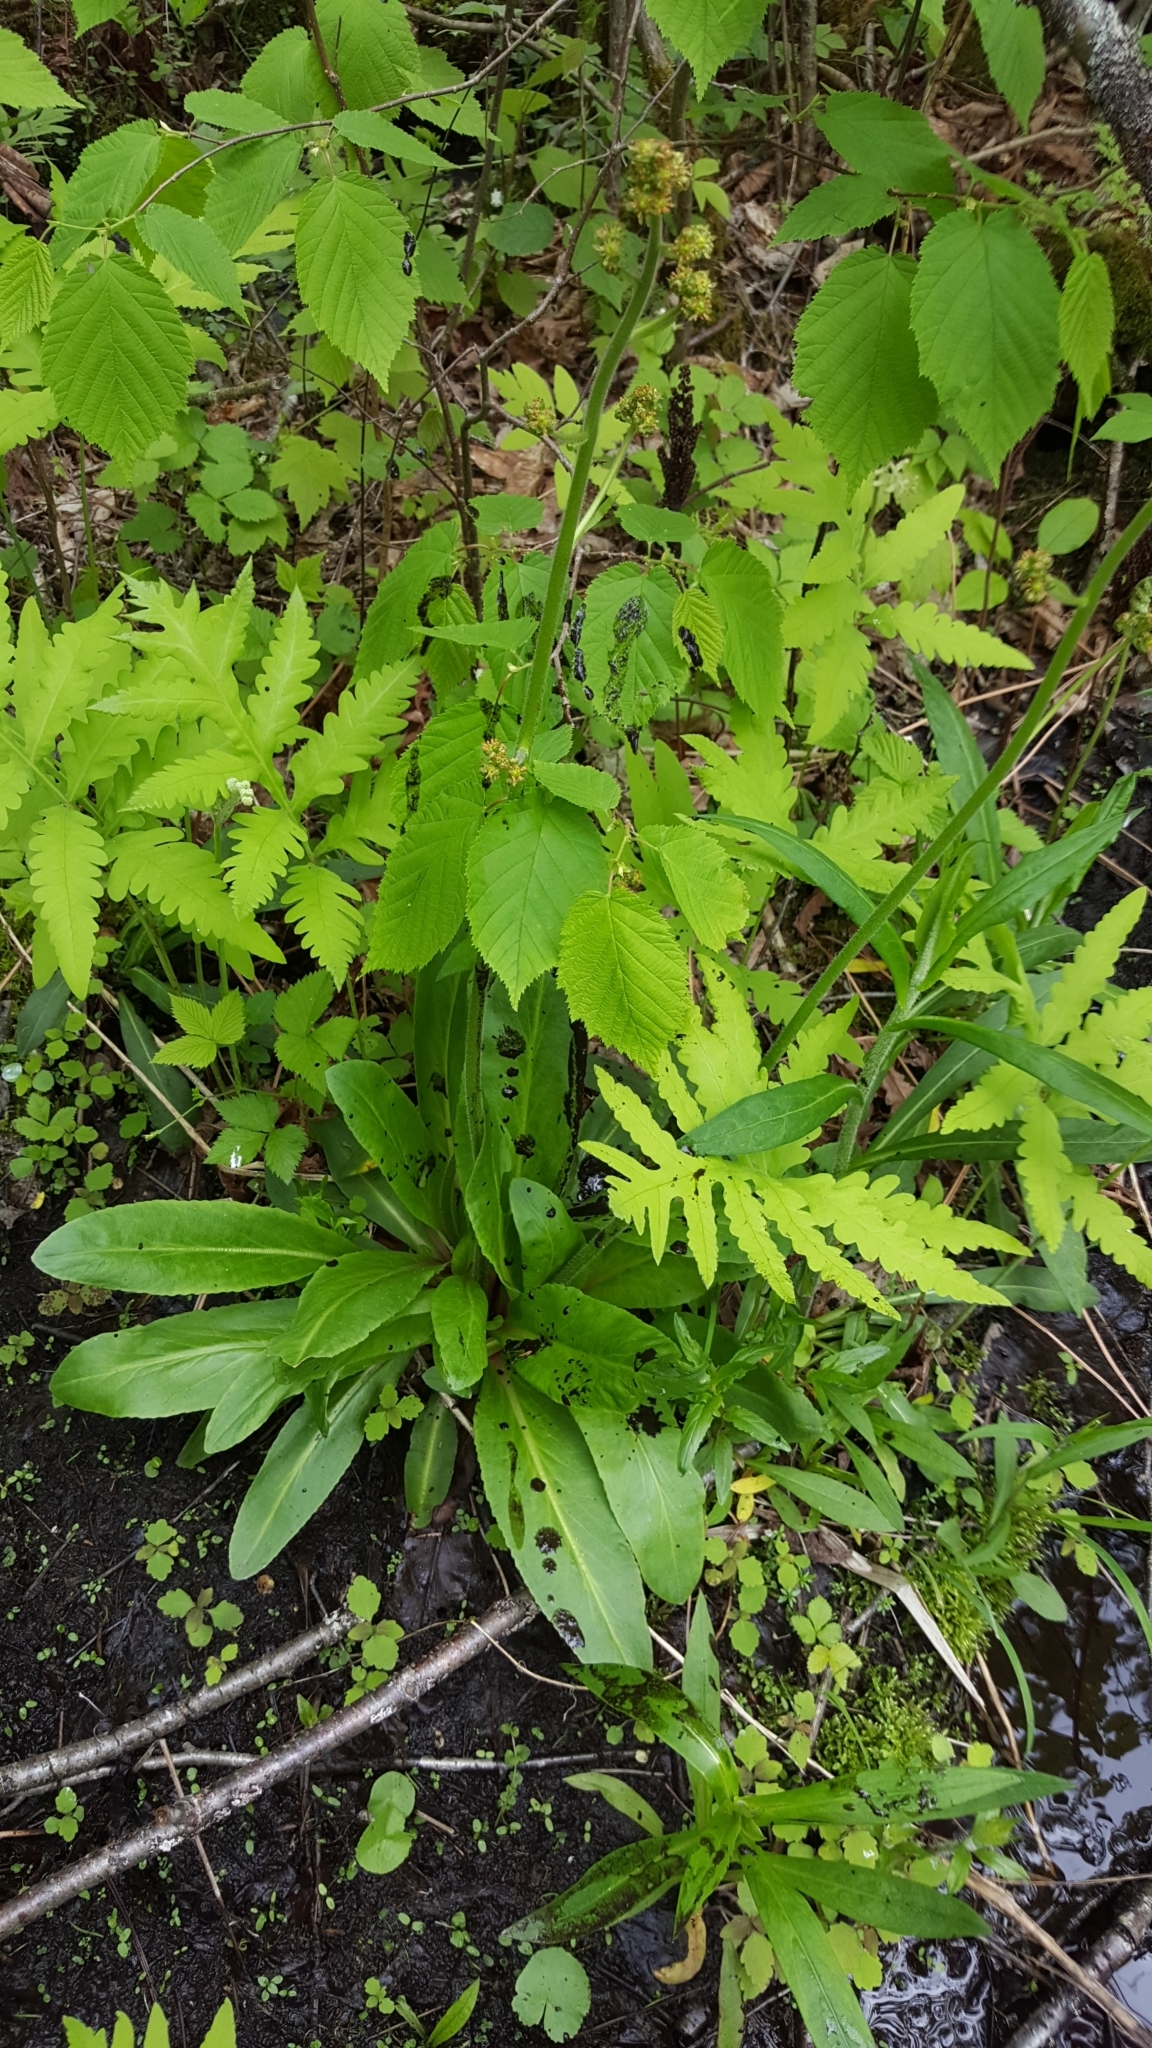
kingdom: Plantae
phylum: Tracheophyta
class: Magnoliopsida
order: Saxifragales
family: Saxifragaceae
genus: Micranthes
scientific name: Micranthes pensylvanica
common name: Marsh saxifrage
